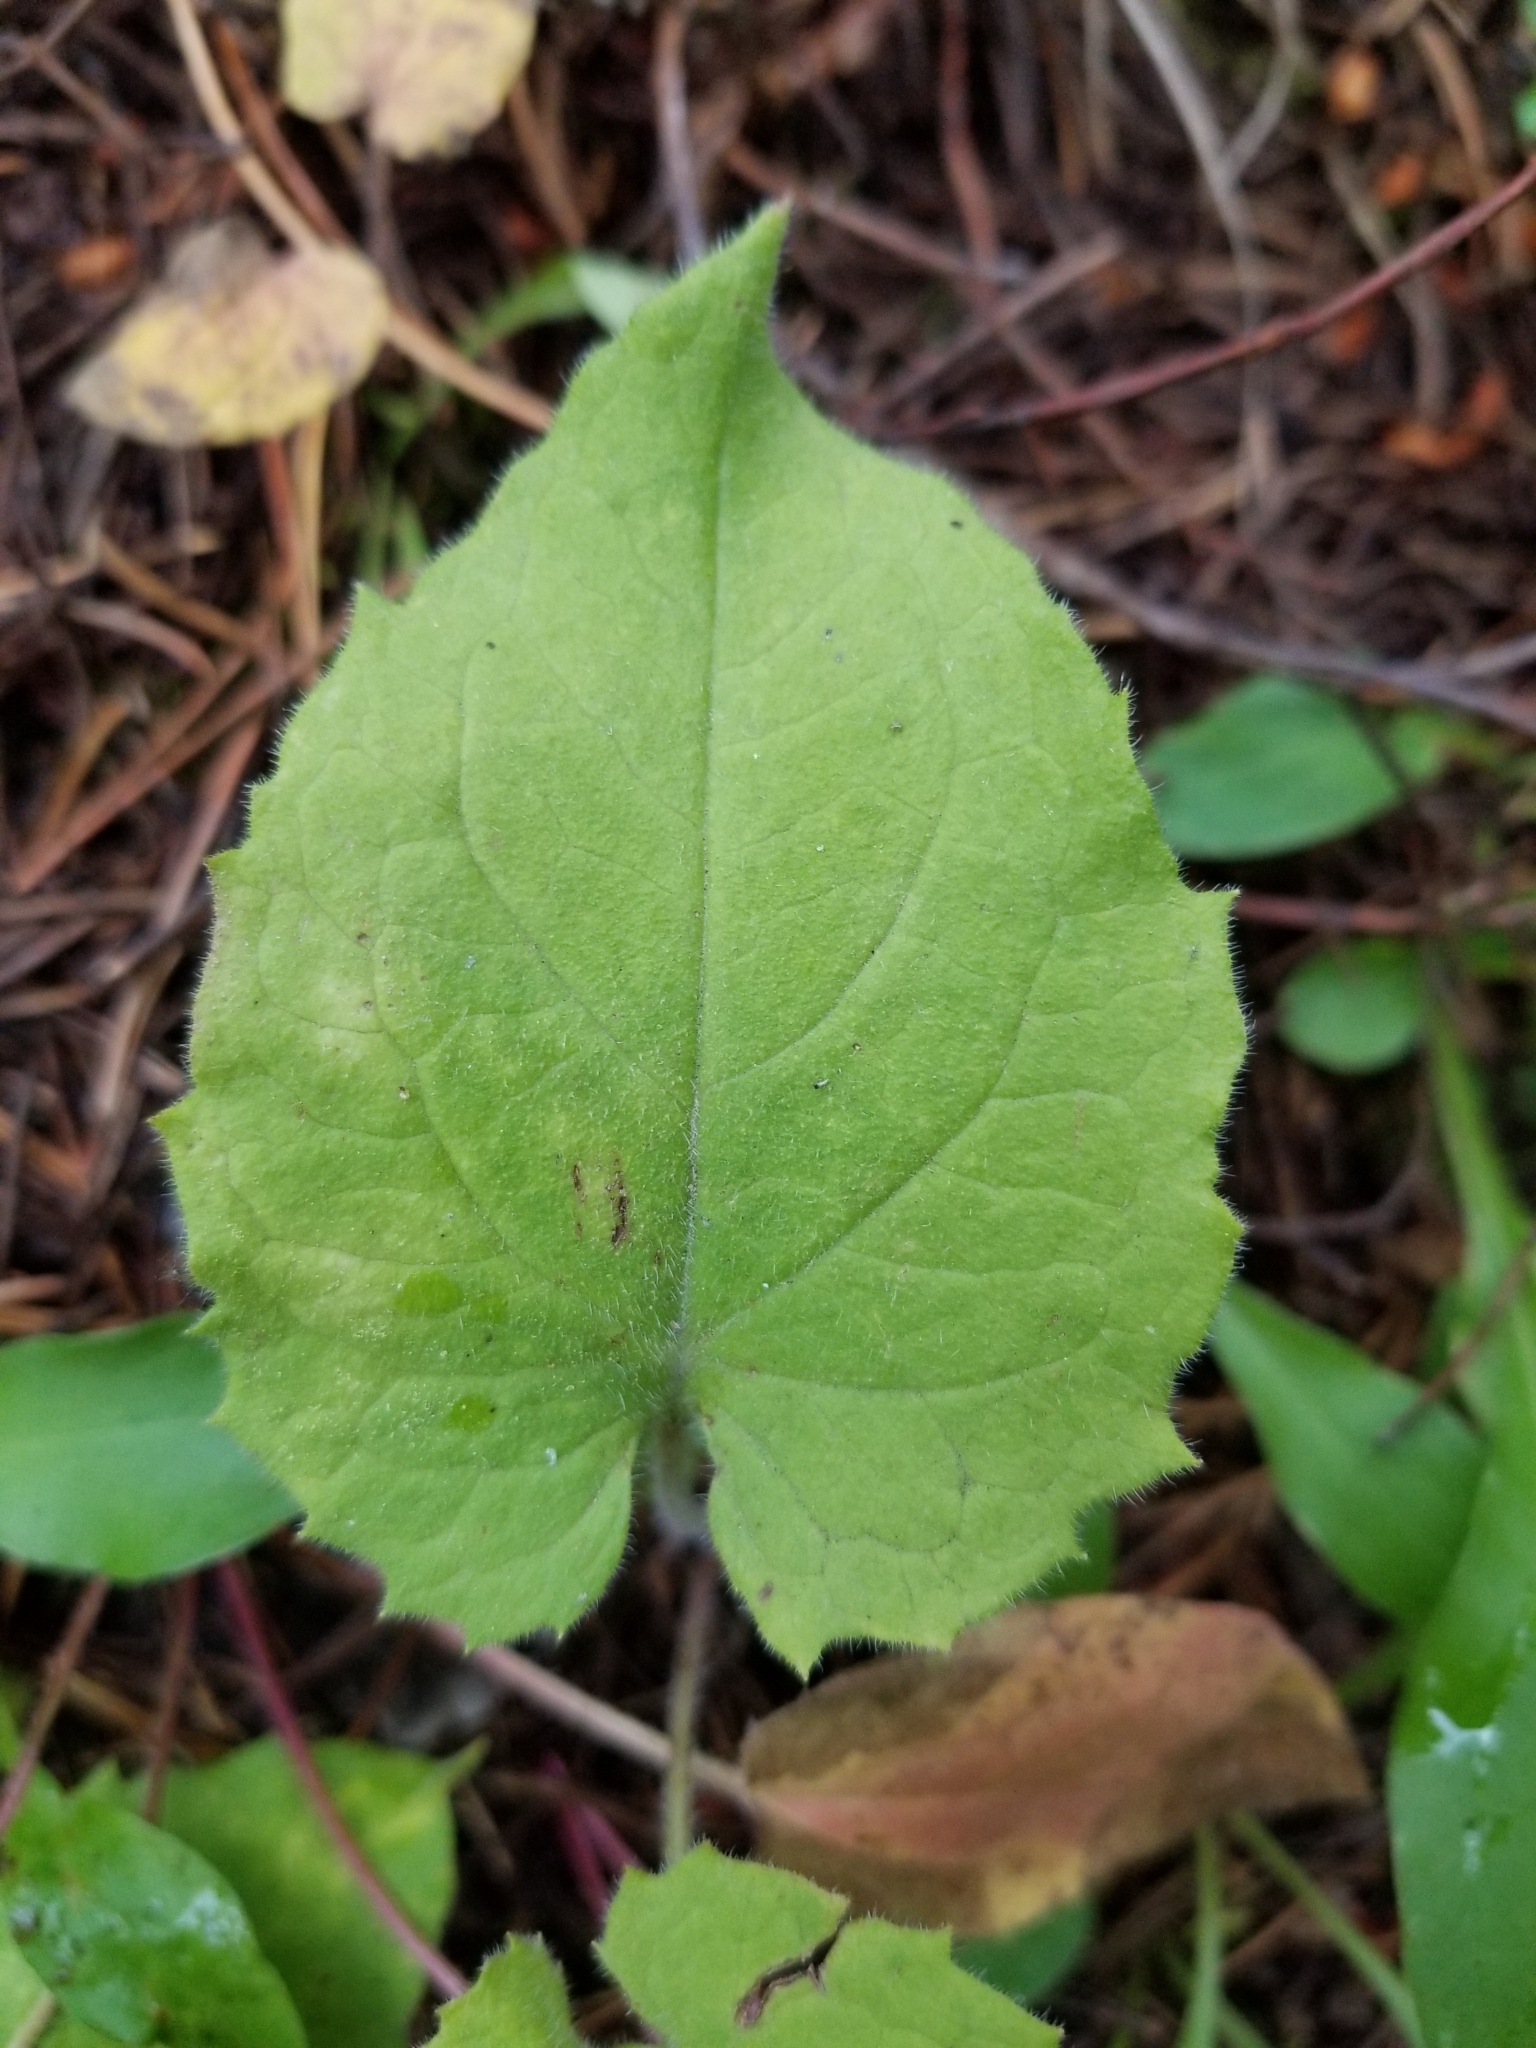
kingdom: Plantae
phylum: Tracheophyta
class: Magnoliopsida
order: Asterales
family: Asteraceae
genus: Arnica
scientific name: Arnica cordifolia
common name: Heart-leaf arnica
